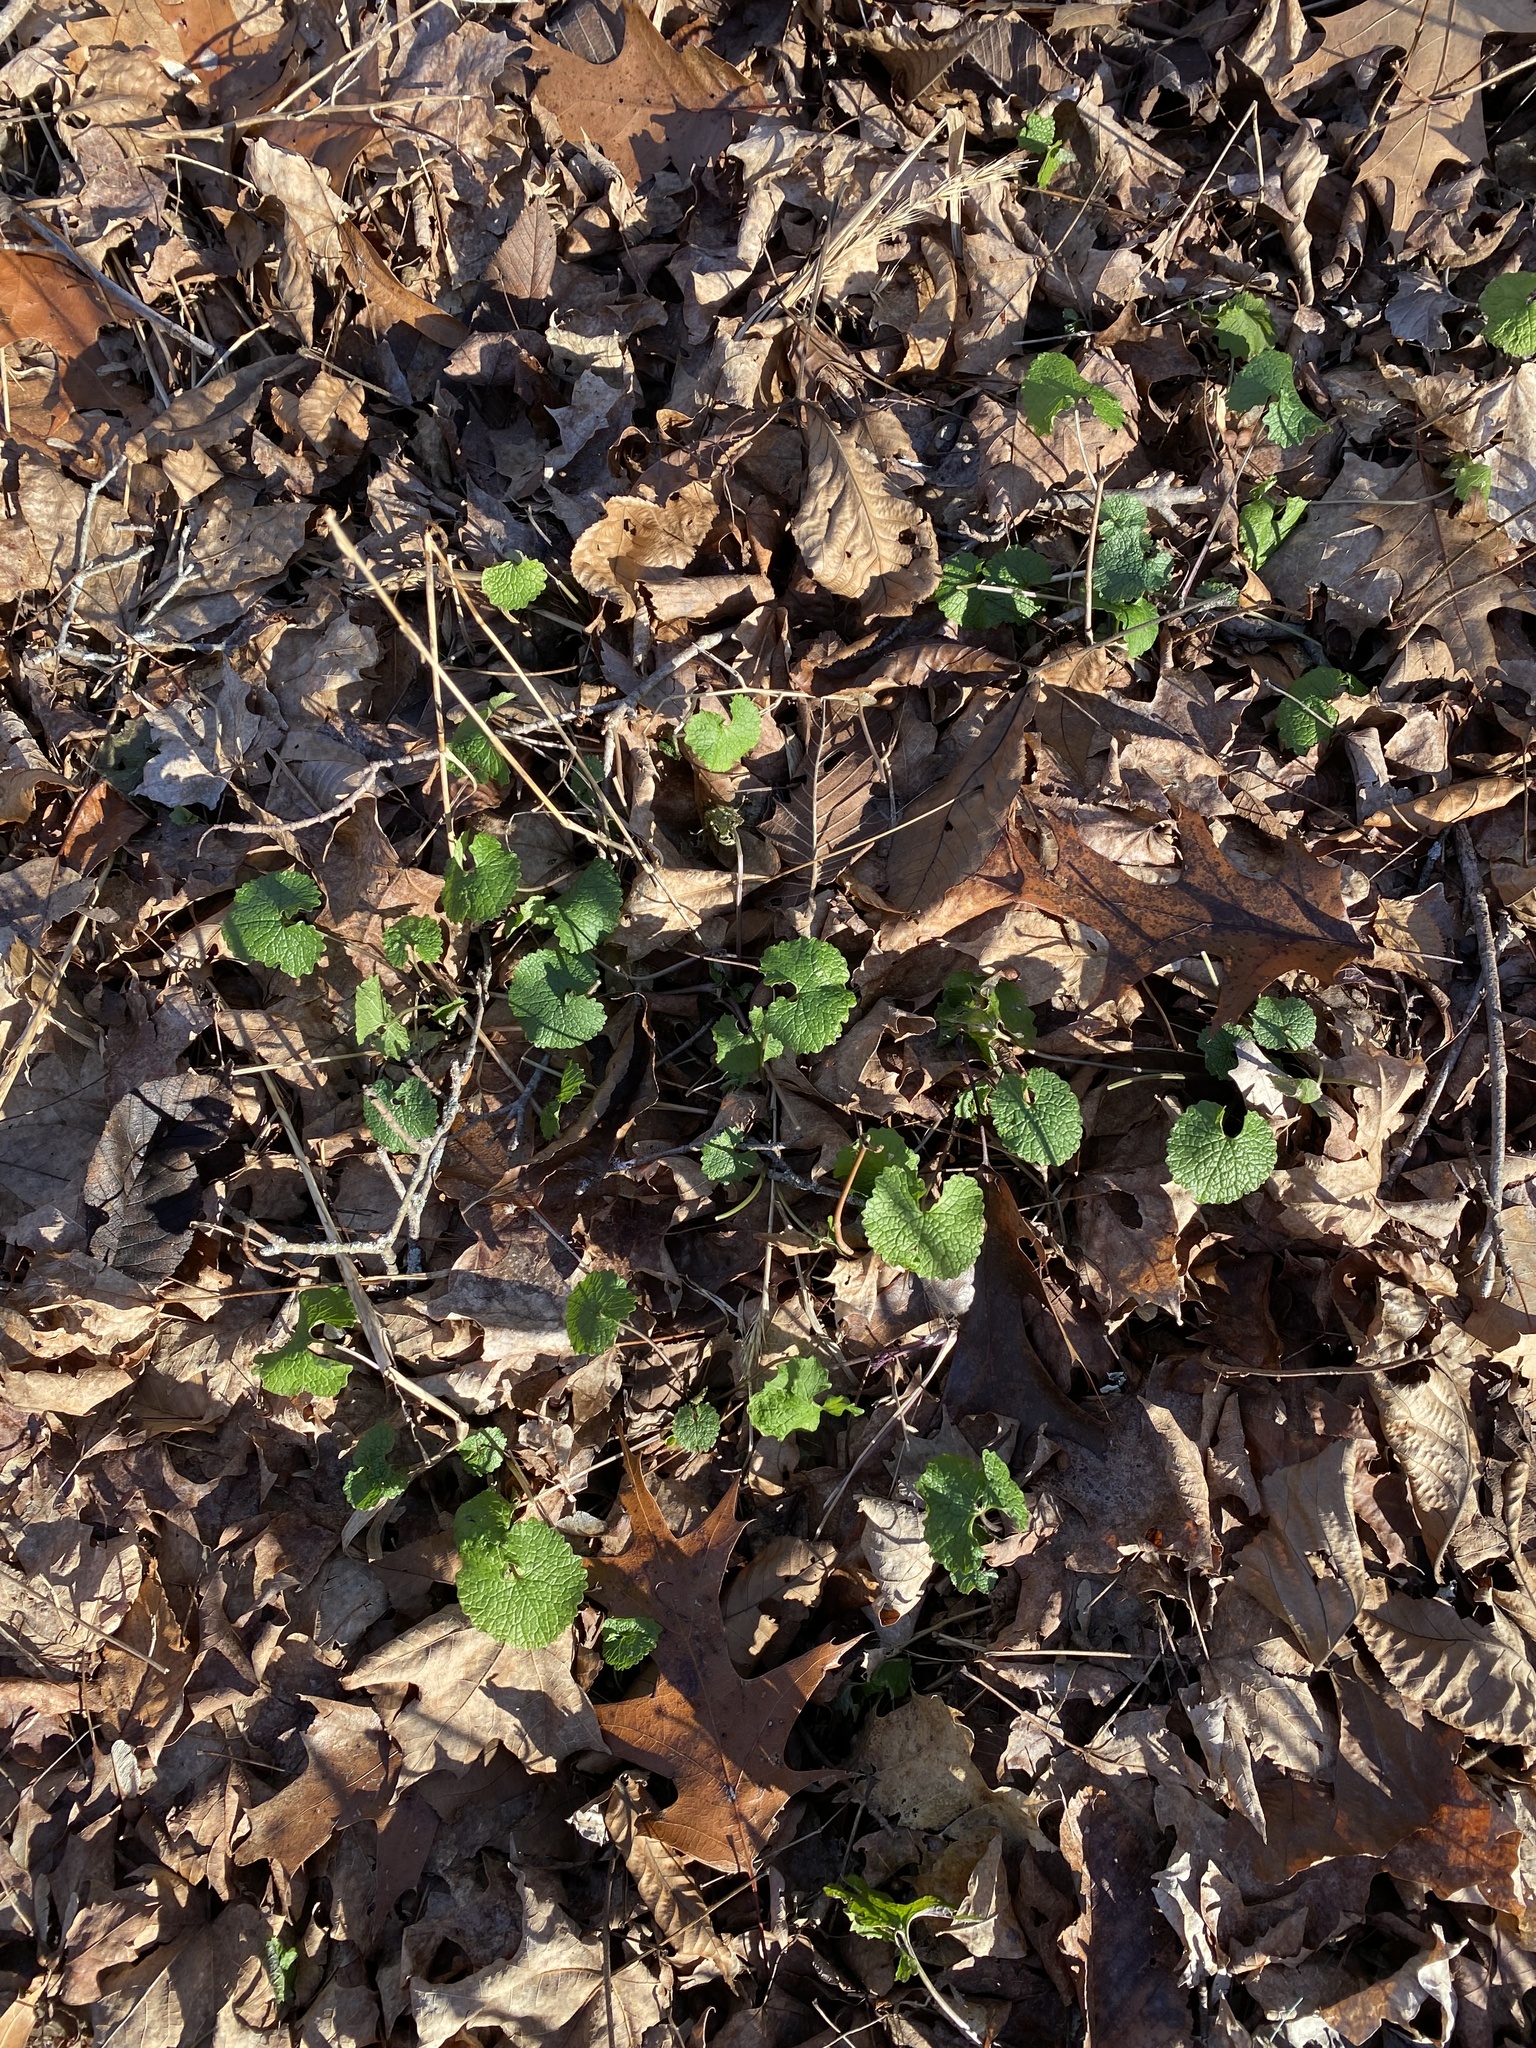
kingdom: Plantae
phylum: Tracheophyta
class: Magnoliopsida
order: Brassicales
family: Brassicaceae
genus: Alliaria
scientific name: Alliaria petiolata
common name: Garlic mustard
